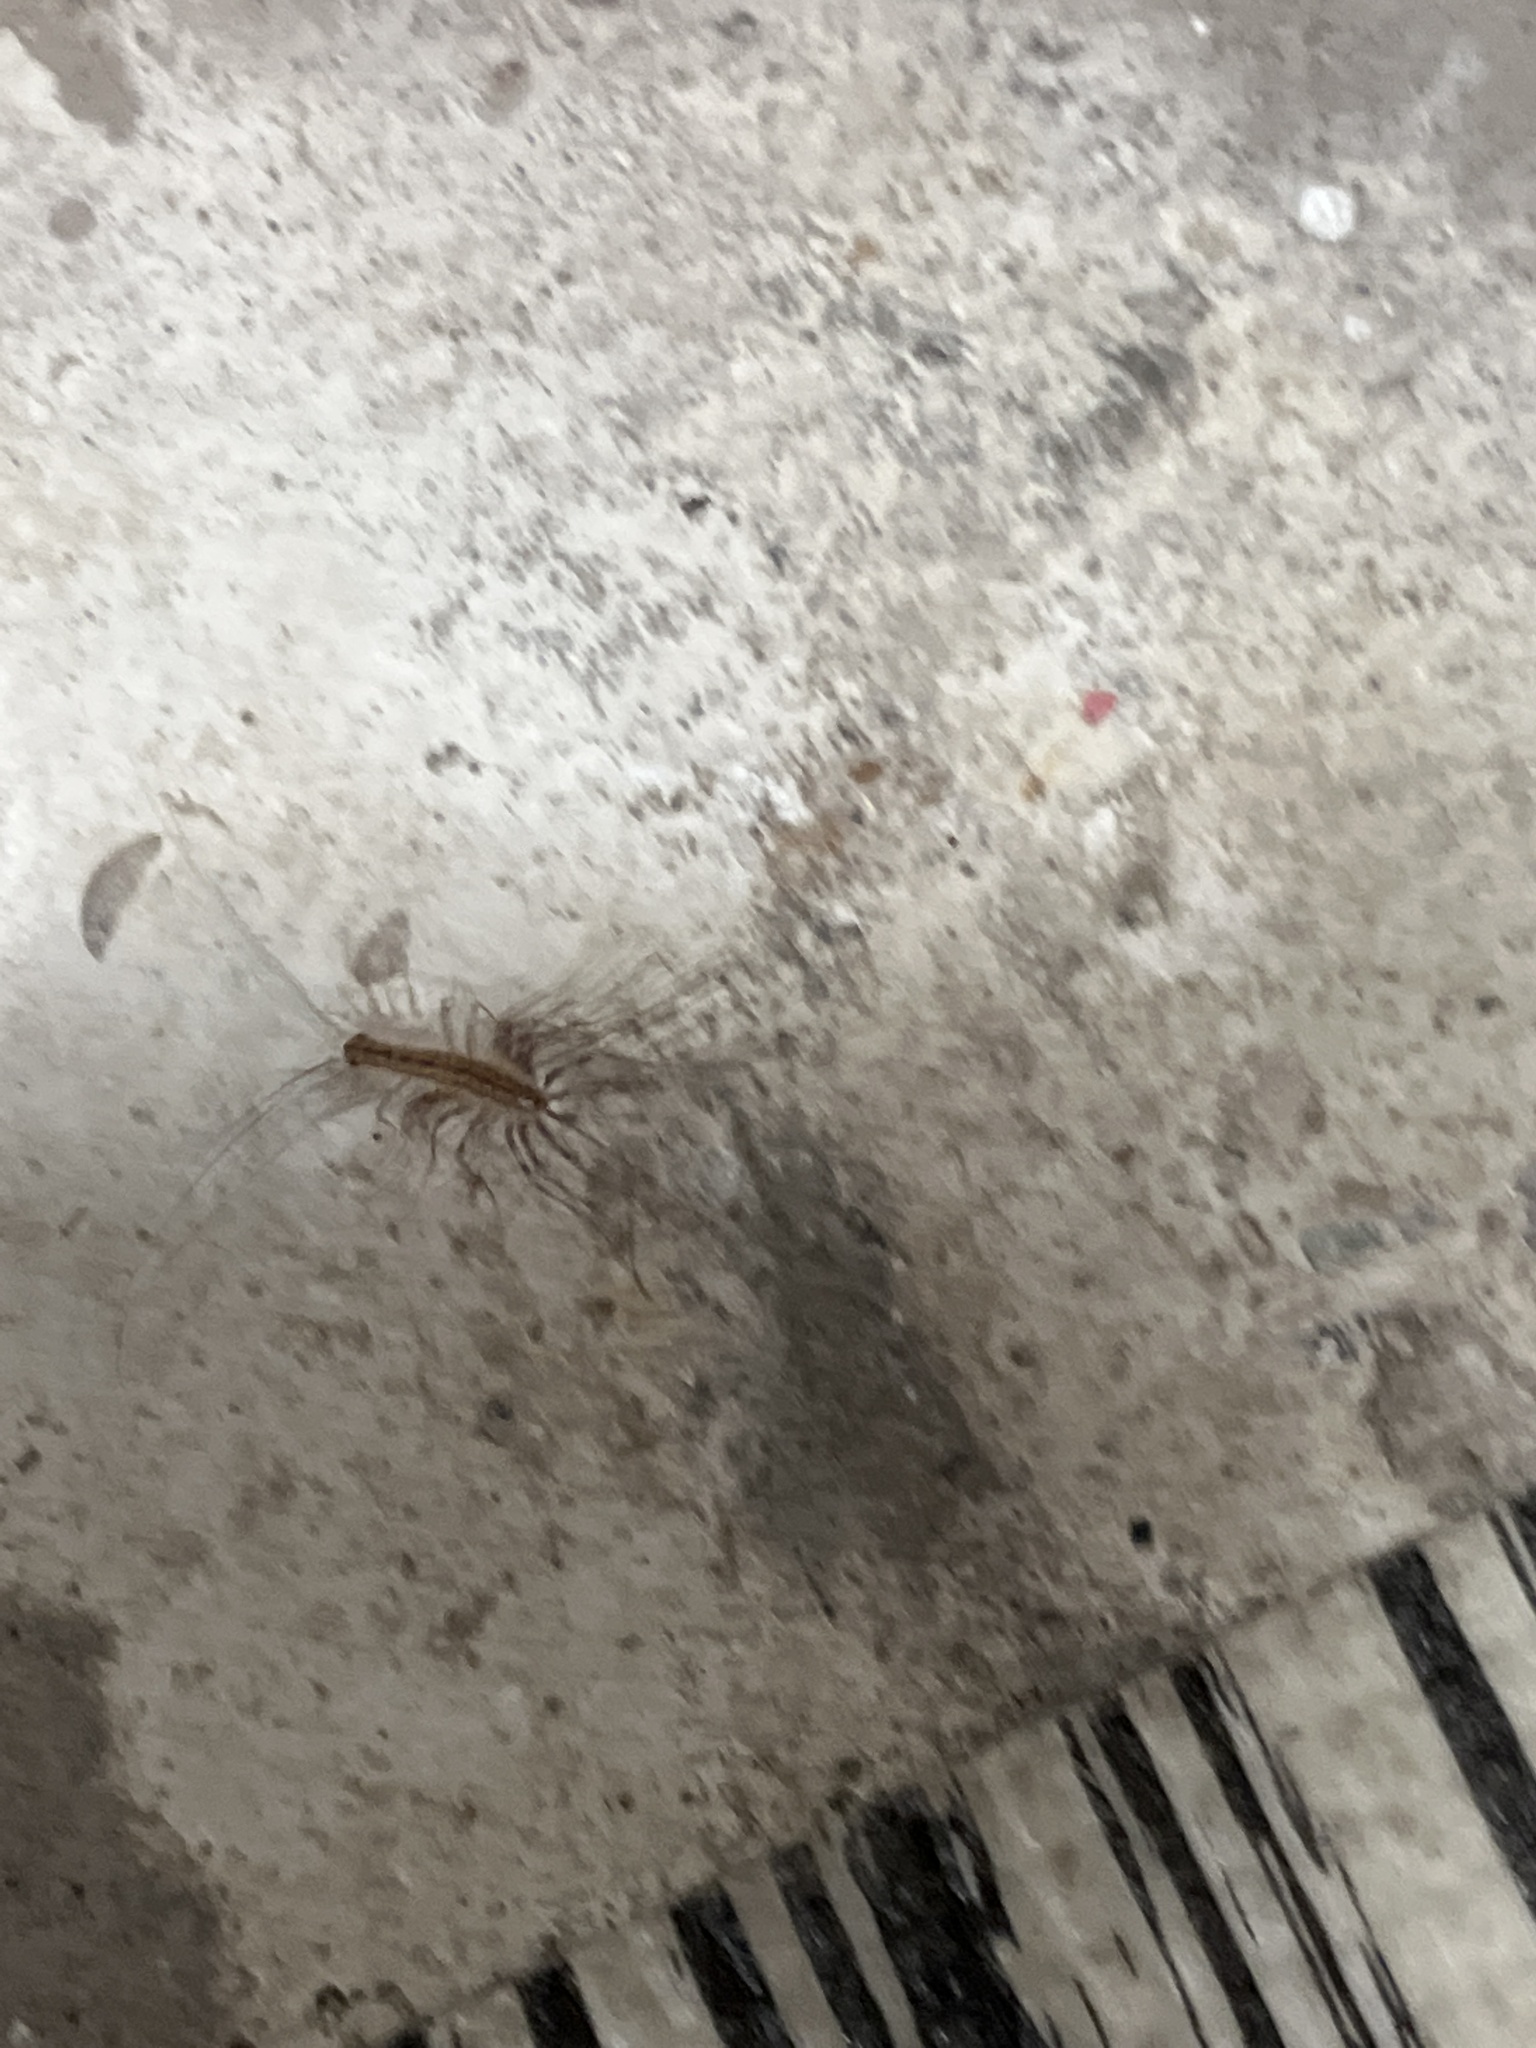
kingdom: Animalia
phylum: Arthropoda
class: Chilopoda
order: Scutigeromorpha
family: Scutigeridae
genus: Scutigera
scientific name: Scutigera coleoptrata
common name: House centipede
